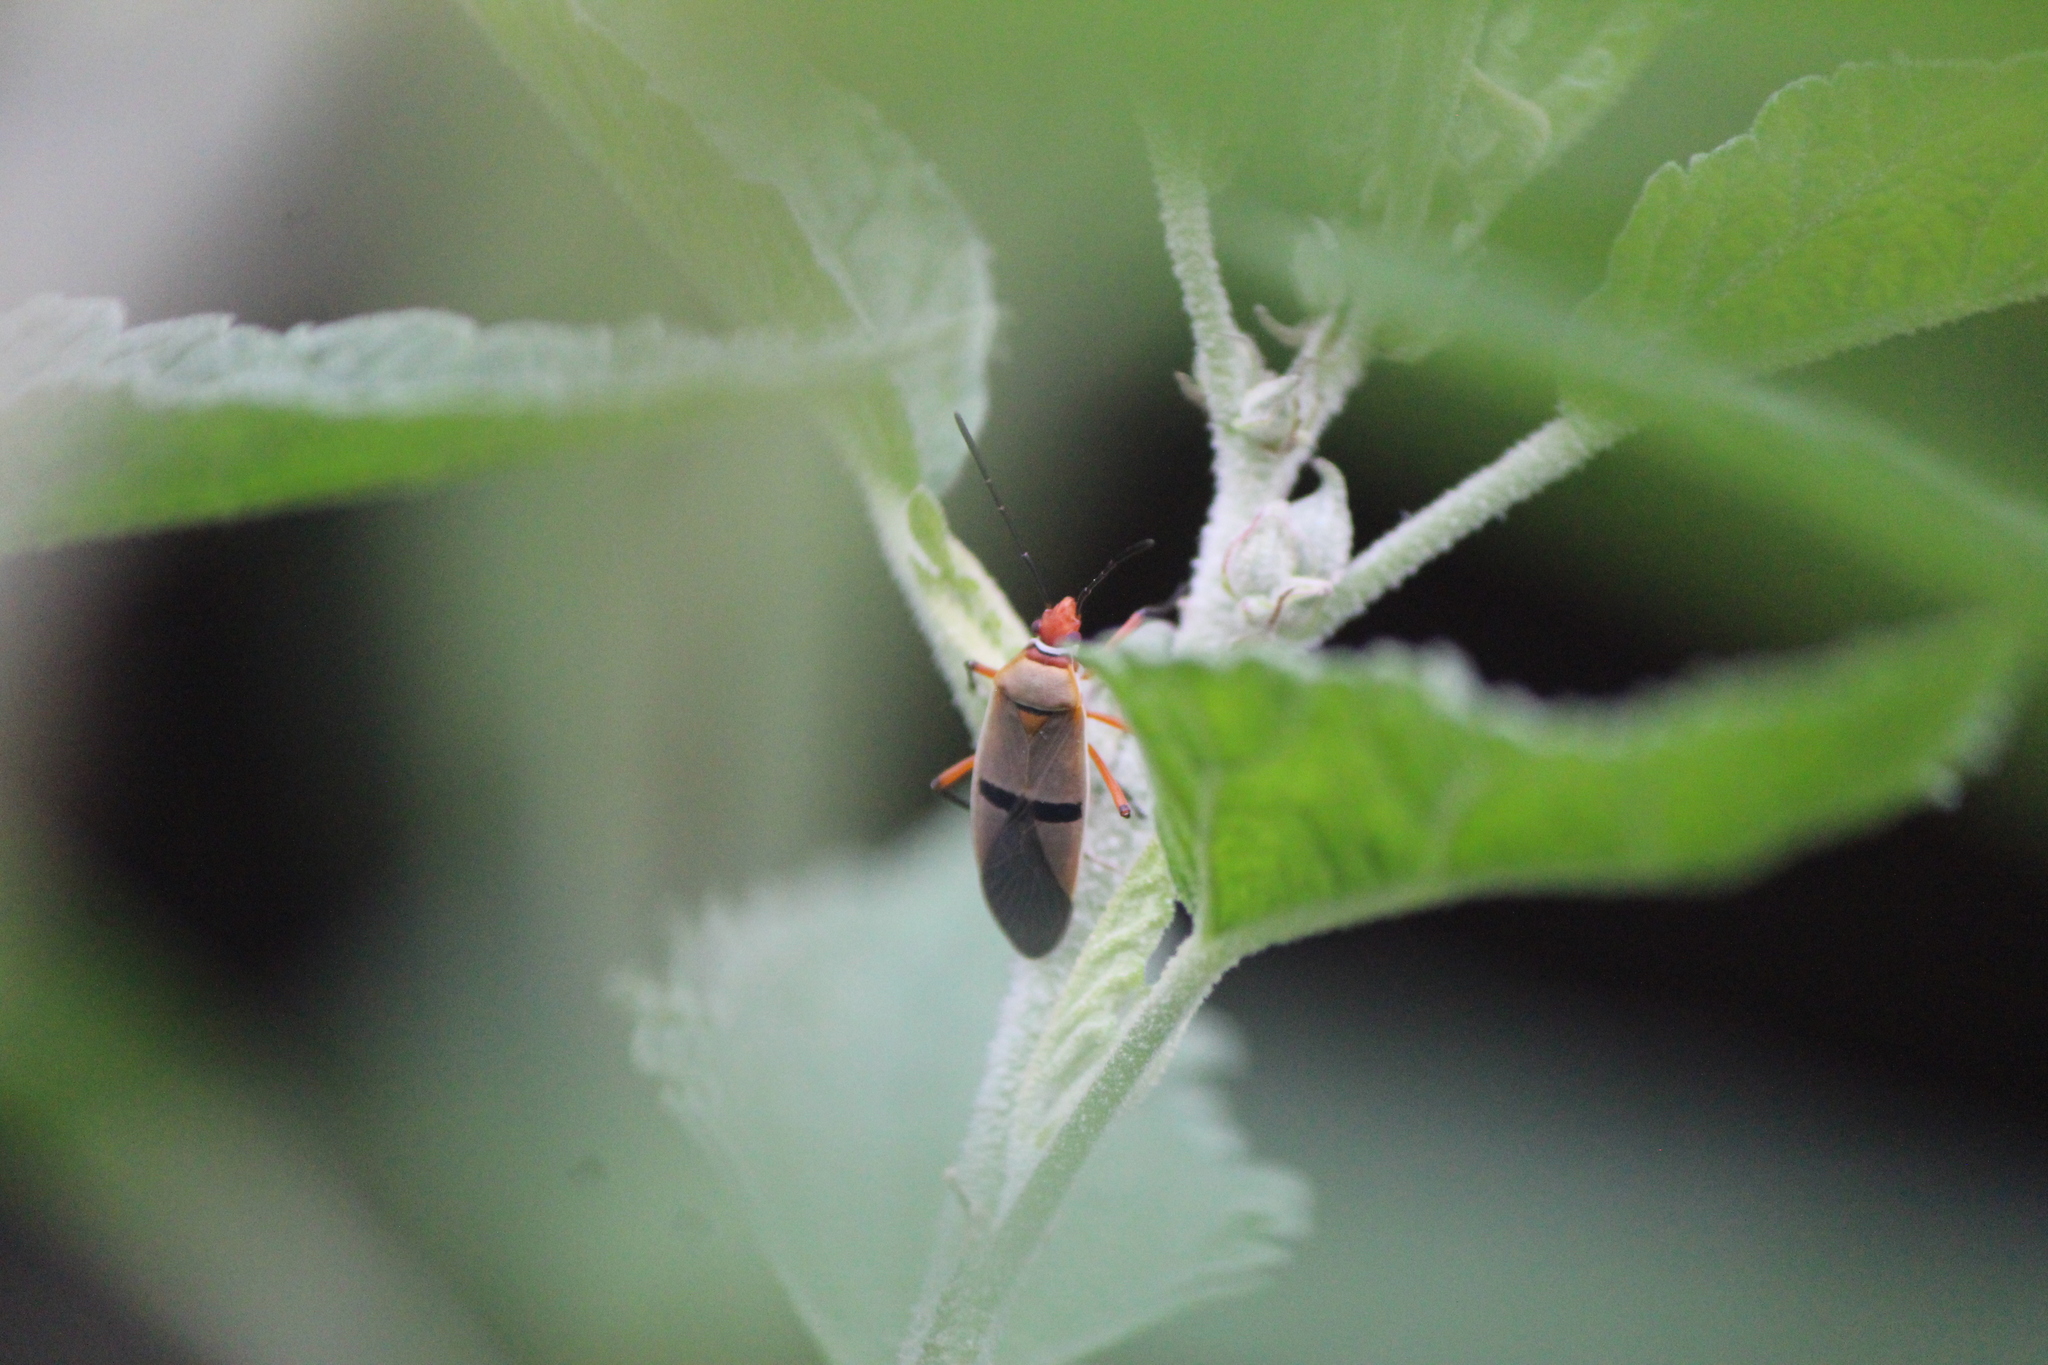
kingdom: Animalia
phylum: Arthropoda
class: Insecta
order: Hemiptera
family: Pyrrhocoridae
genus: Dysdercus
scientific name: Dysdercus bimaculatus
